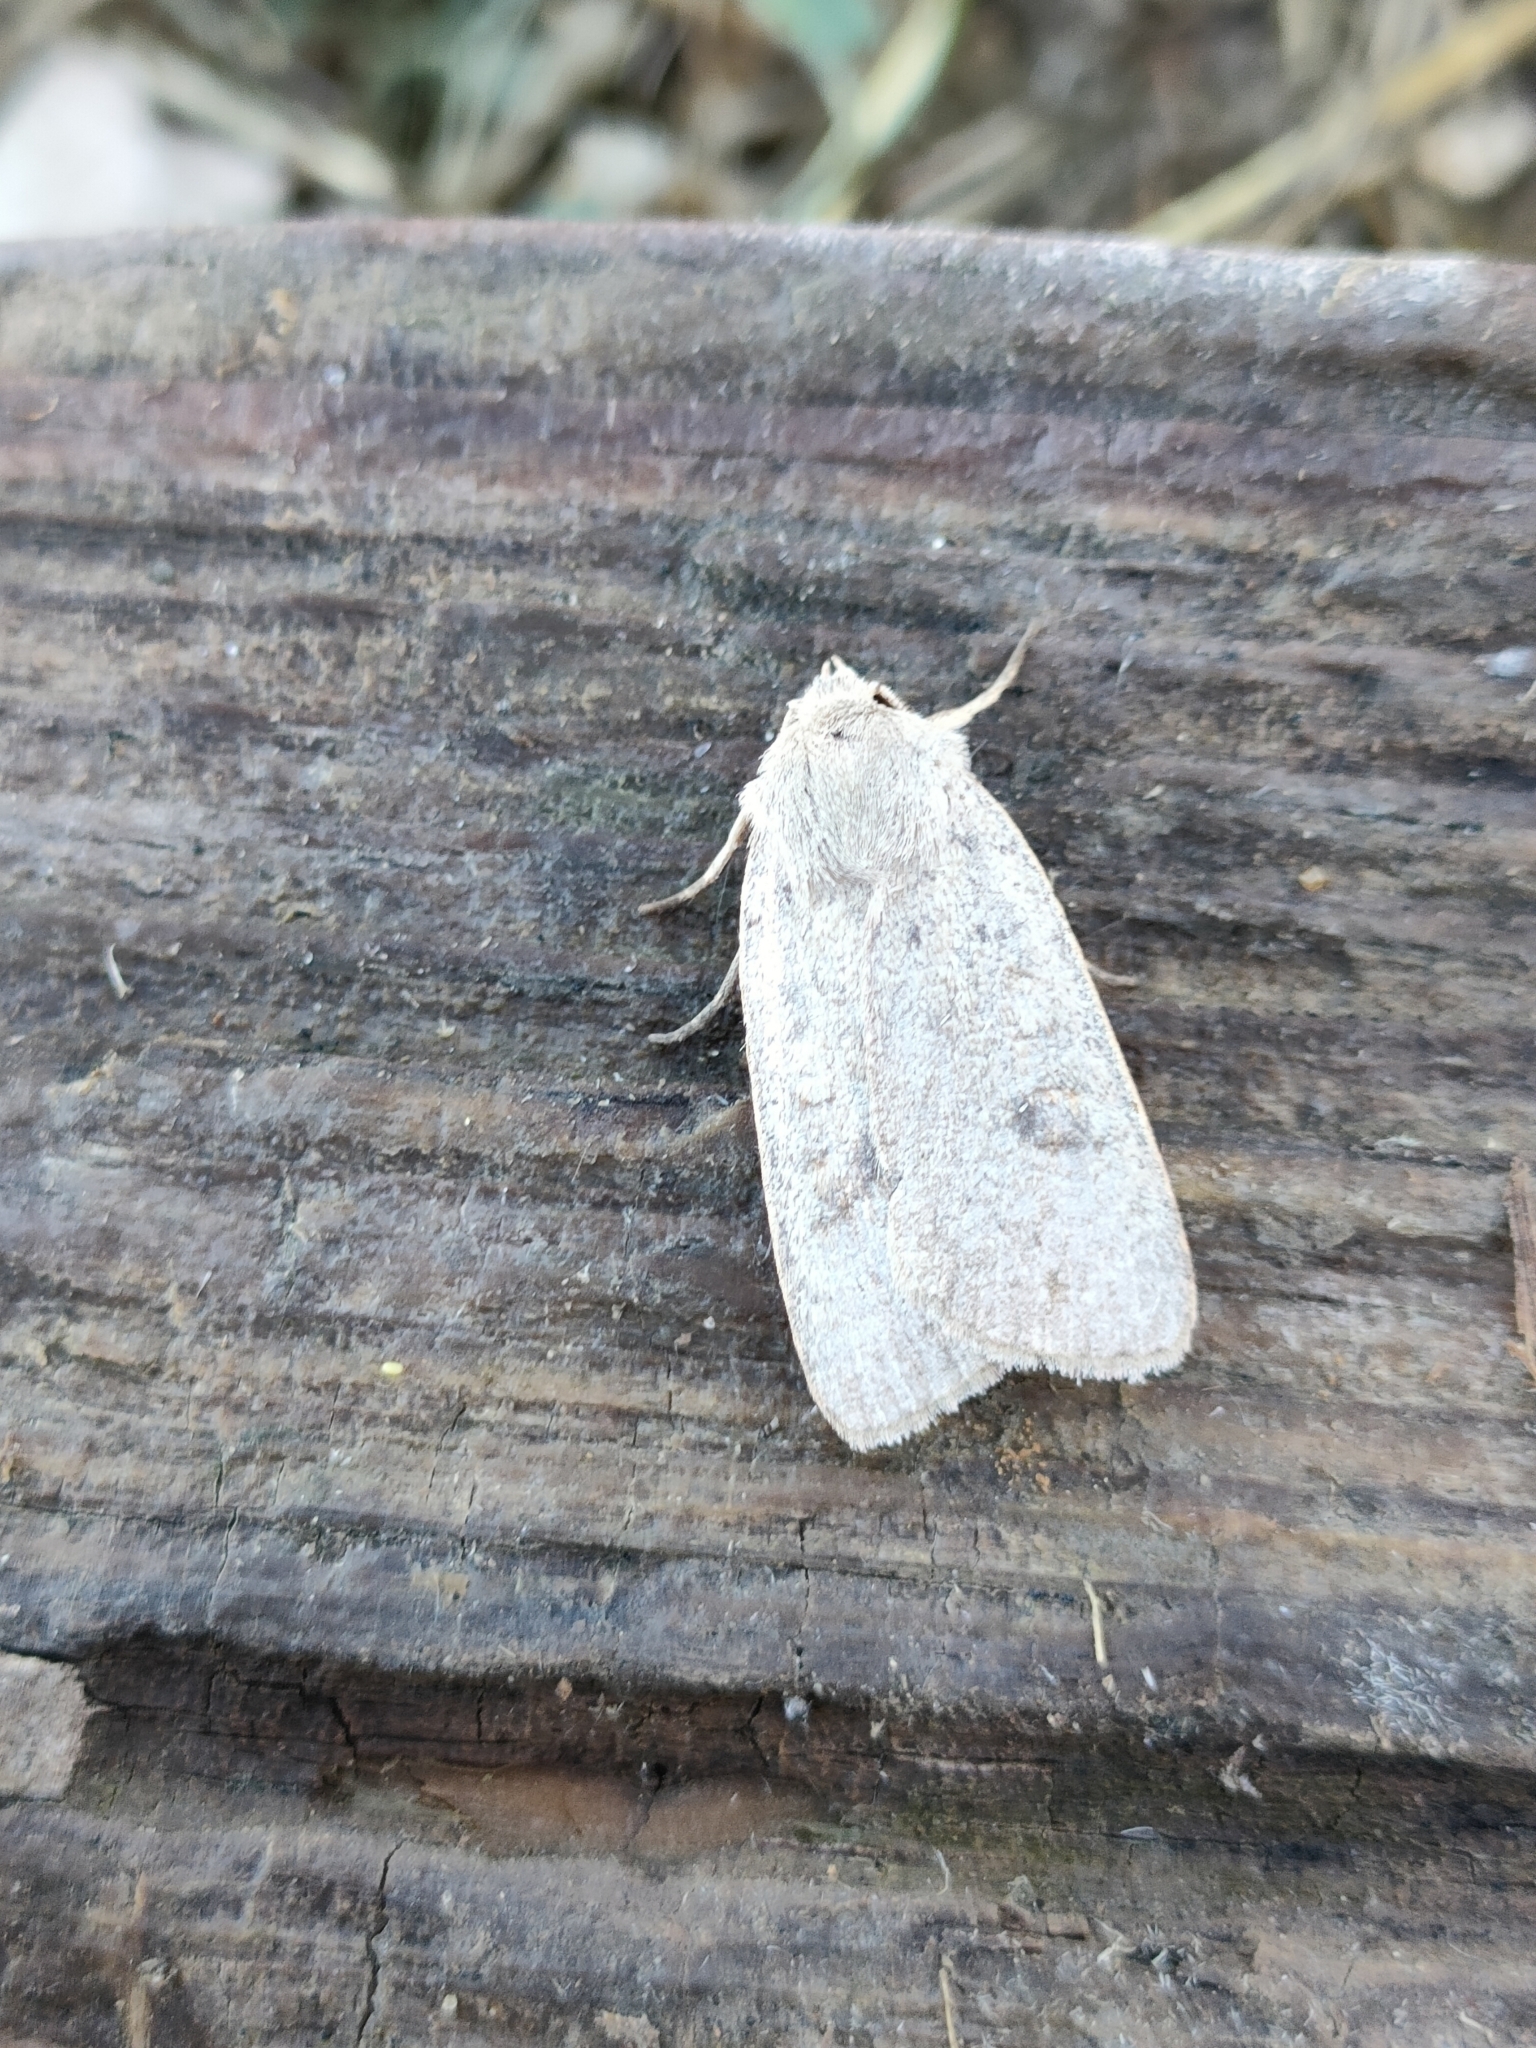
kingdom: Animalia
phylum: Arthropoda
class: Insecta
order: Lepidoptera
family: Noctuidae
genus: Xestia
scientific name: Xestia castanea
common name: Neglected rustic
